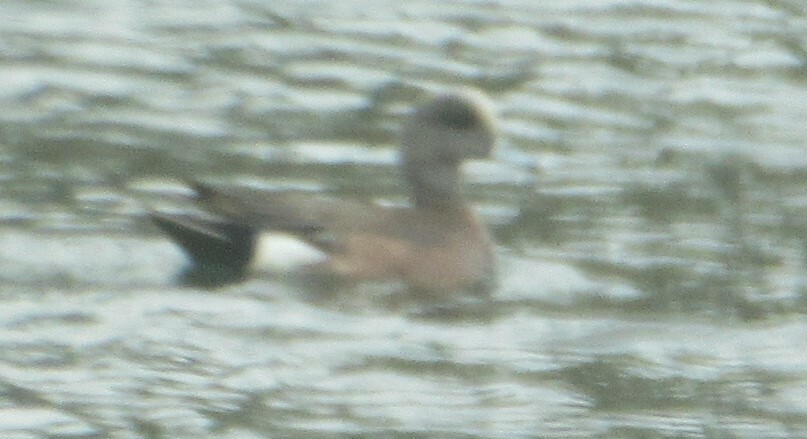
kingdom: Animalia
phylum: Chordata
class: Aves
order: Anseriformes
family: Anatidae
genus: Mareca
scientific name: Mareca americana
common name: American wigeon
